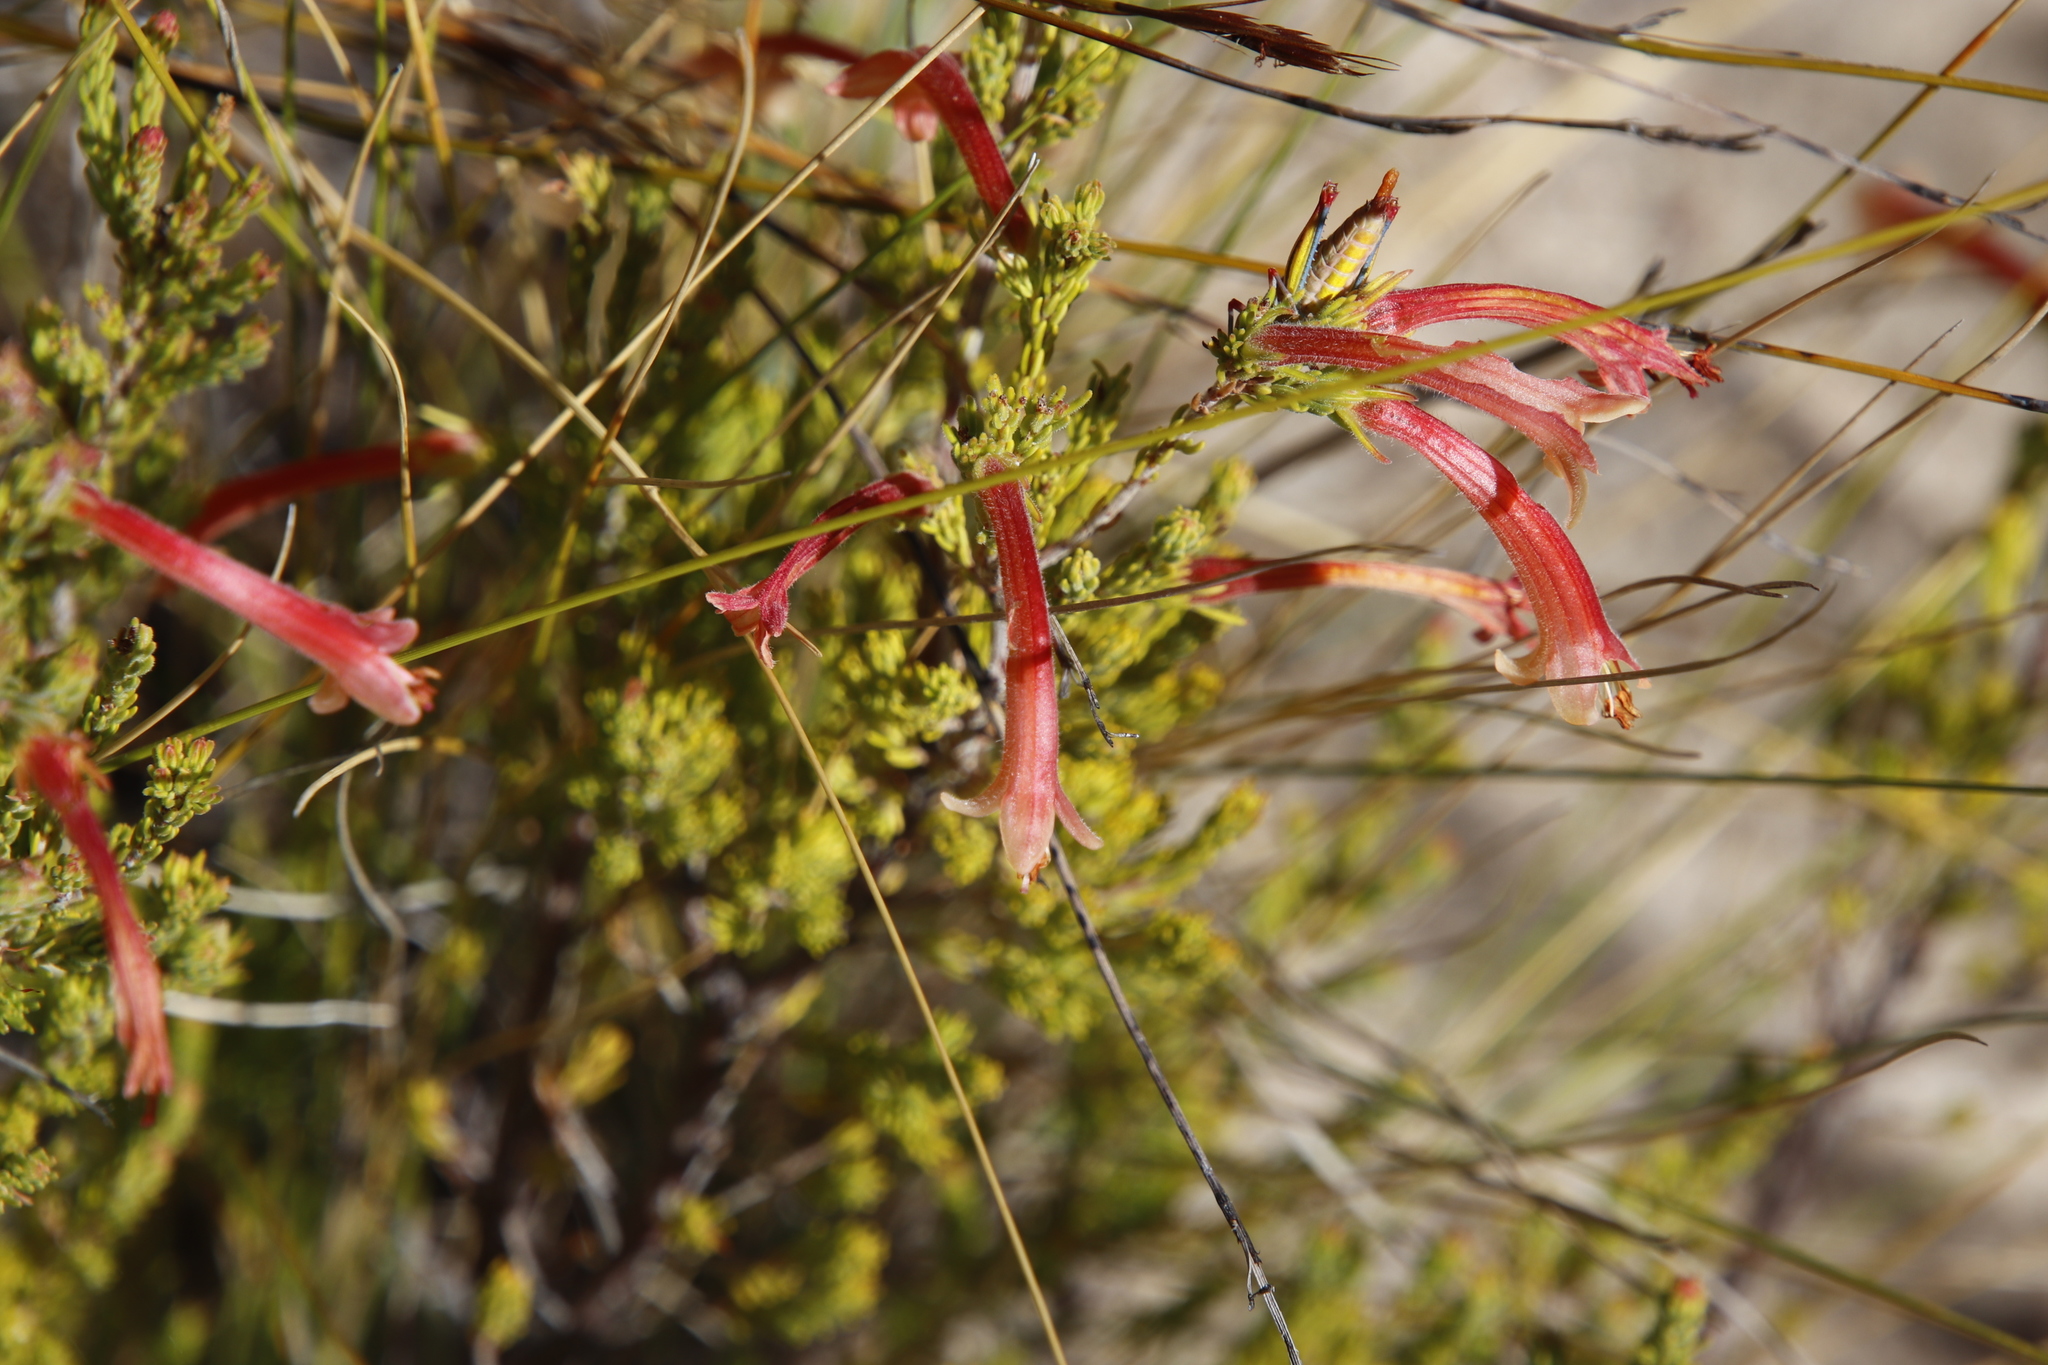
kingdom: Plantae
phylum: Tracheophyta
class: Magnoliopsida
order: Ericales
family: Ericaceae
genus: Erica
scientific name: Erica curviflora
